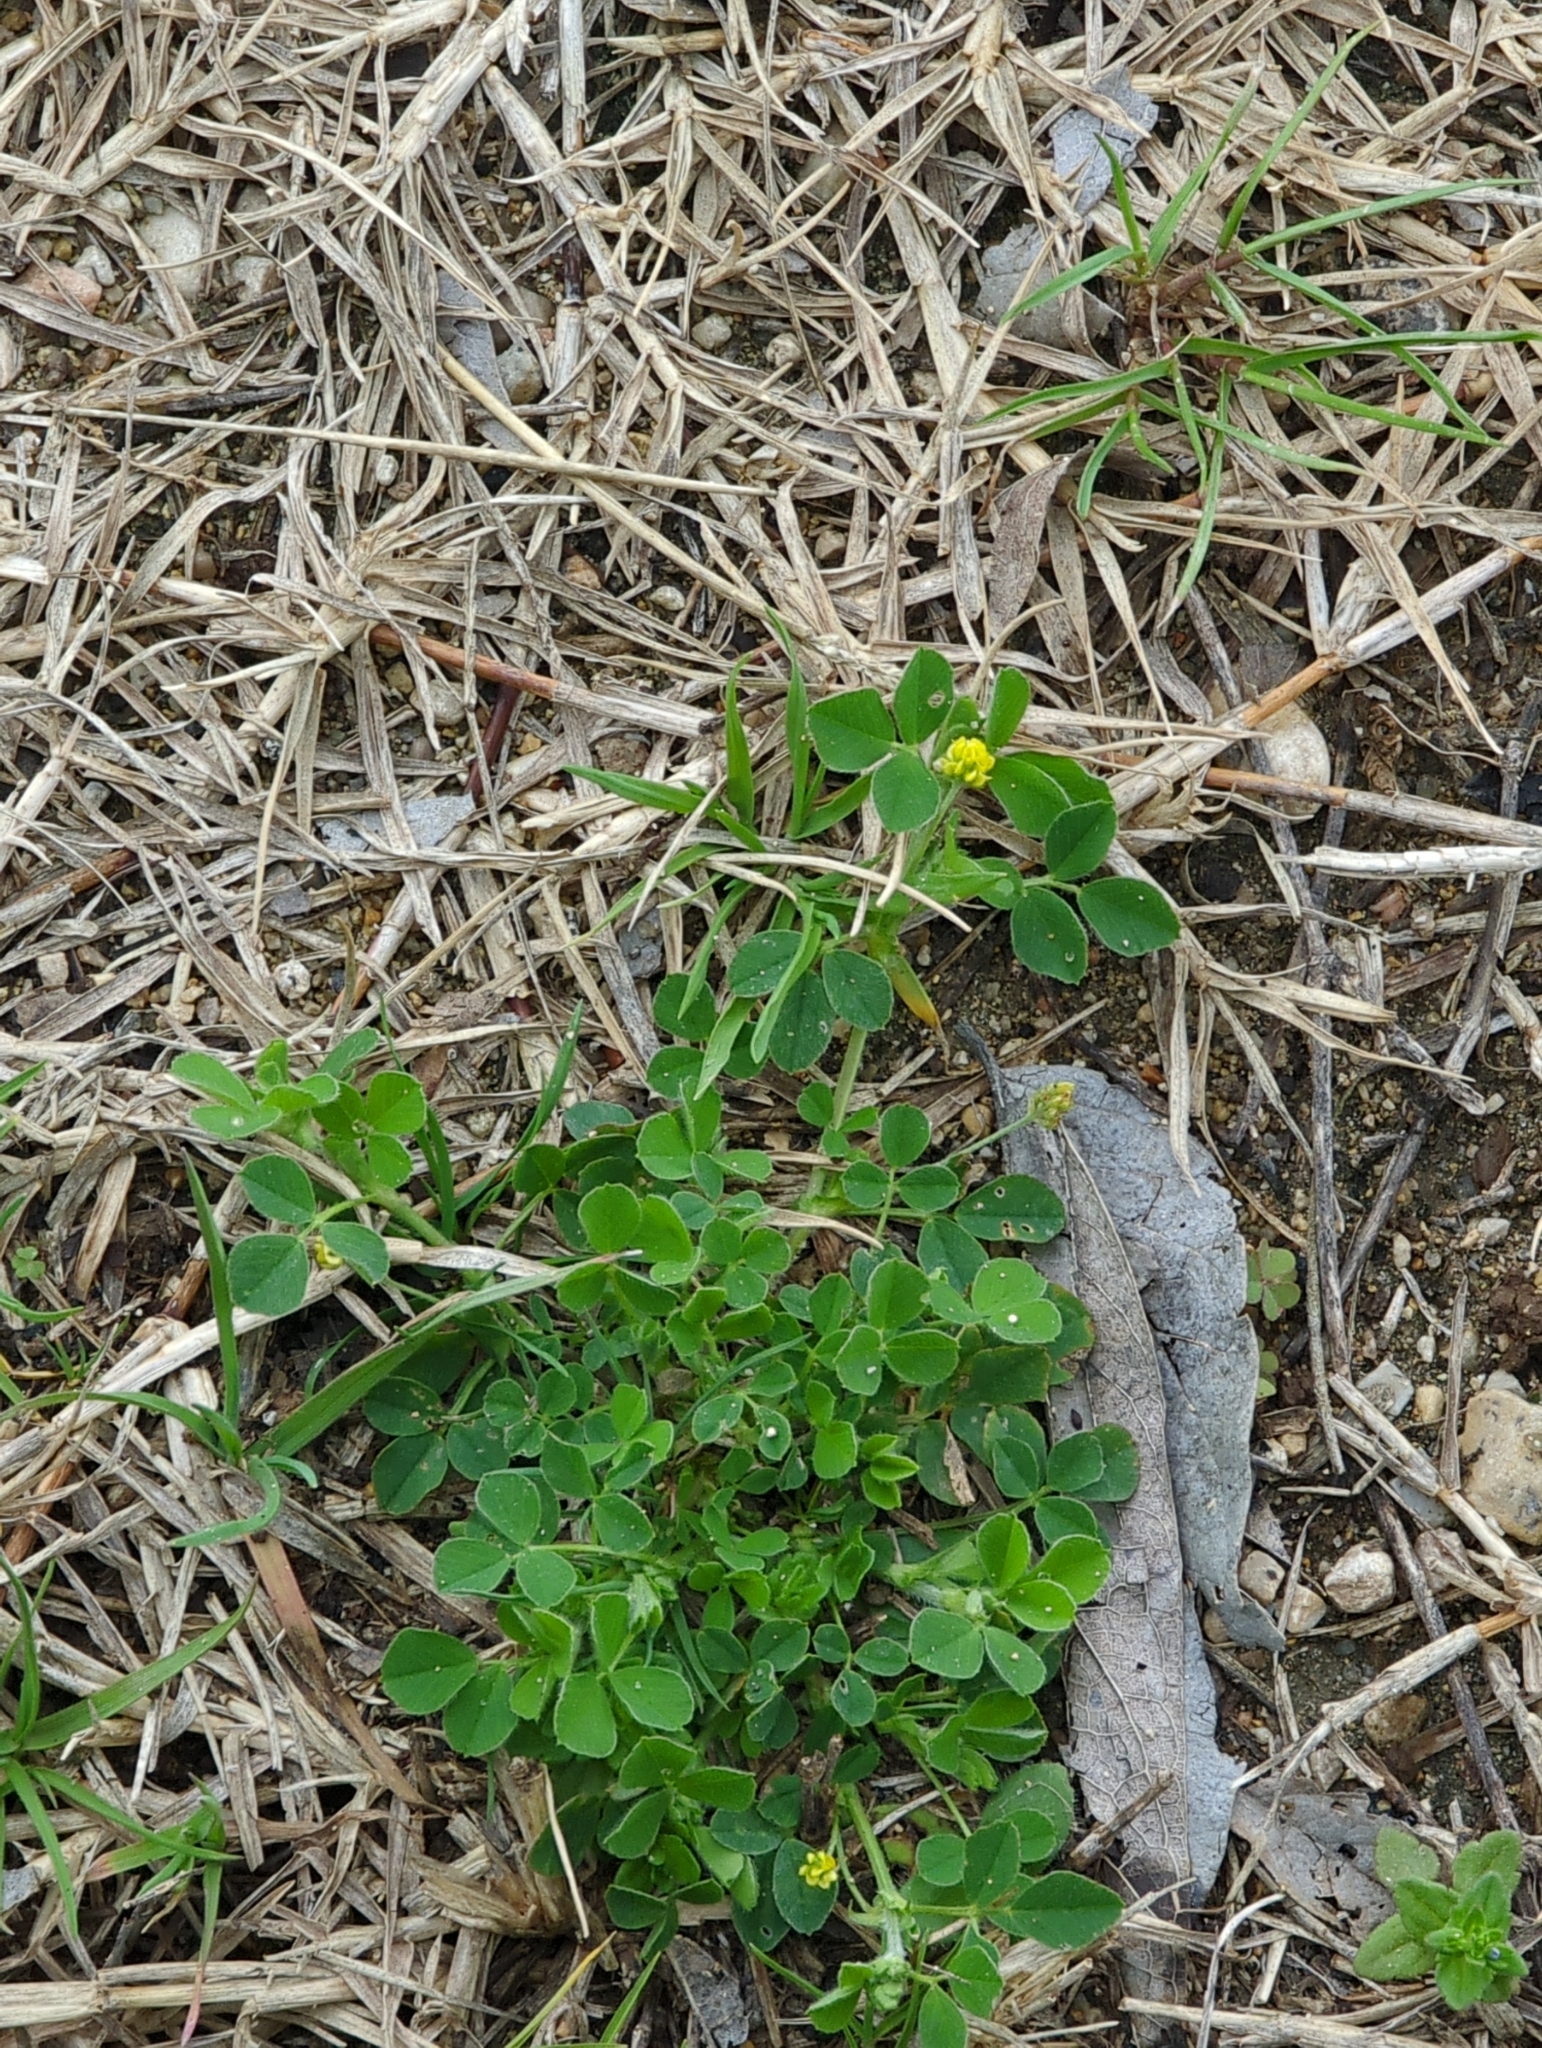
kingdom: Plantae
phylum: Tracheophyta
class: Magnoliopsida
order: Fabales
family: Fabaceae
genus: Medicago
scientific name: Medicago lupulina
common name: Black medick
